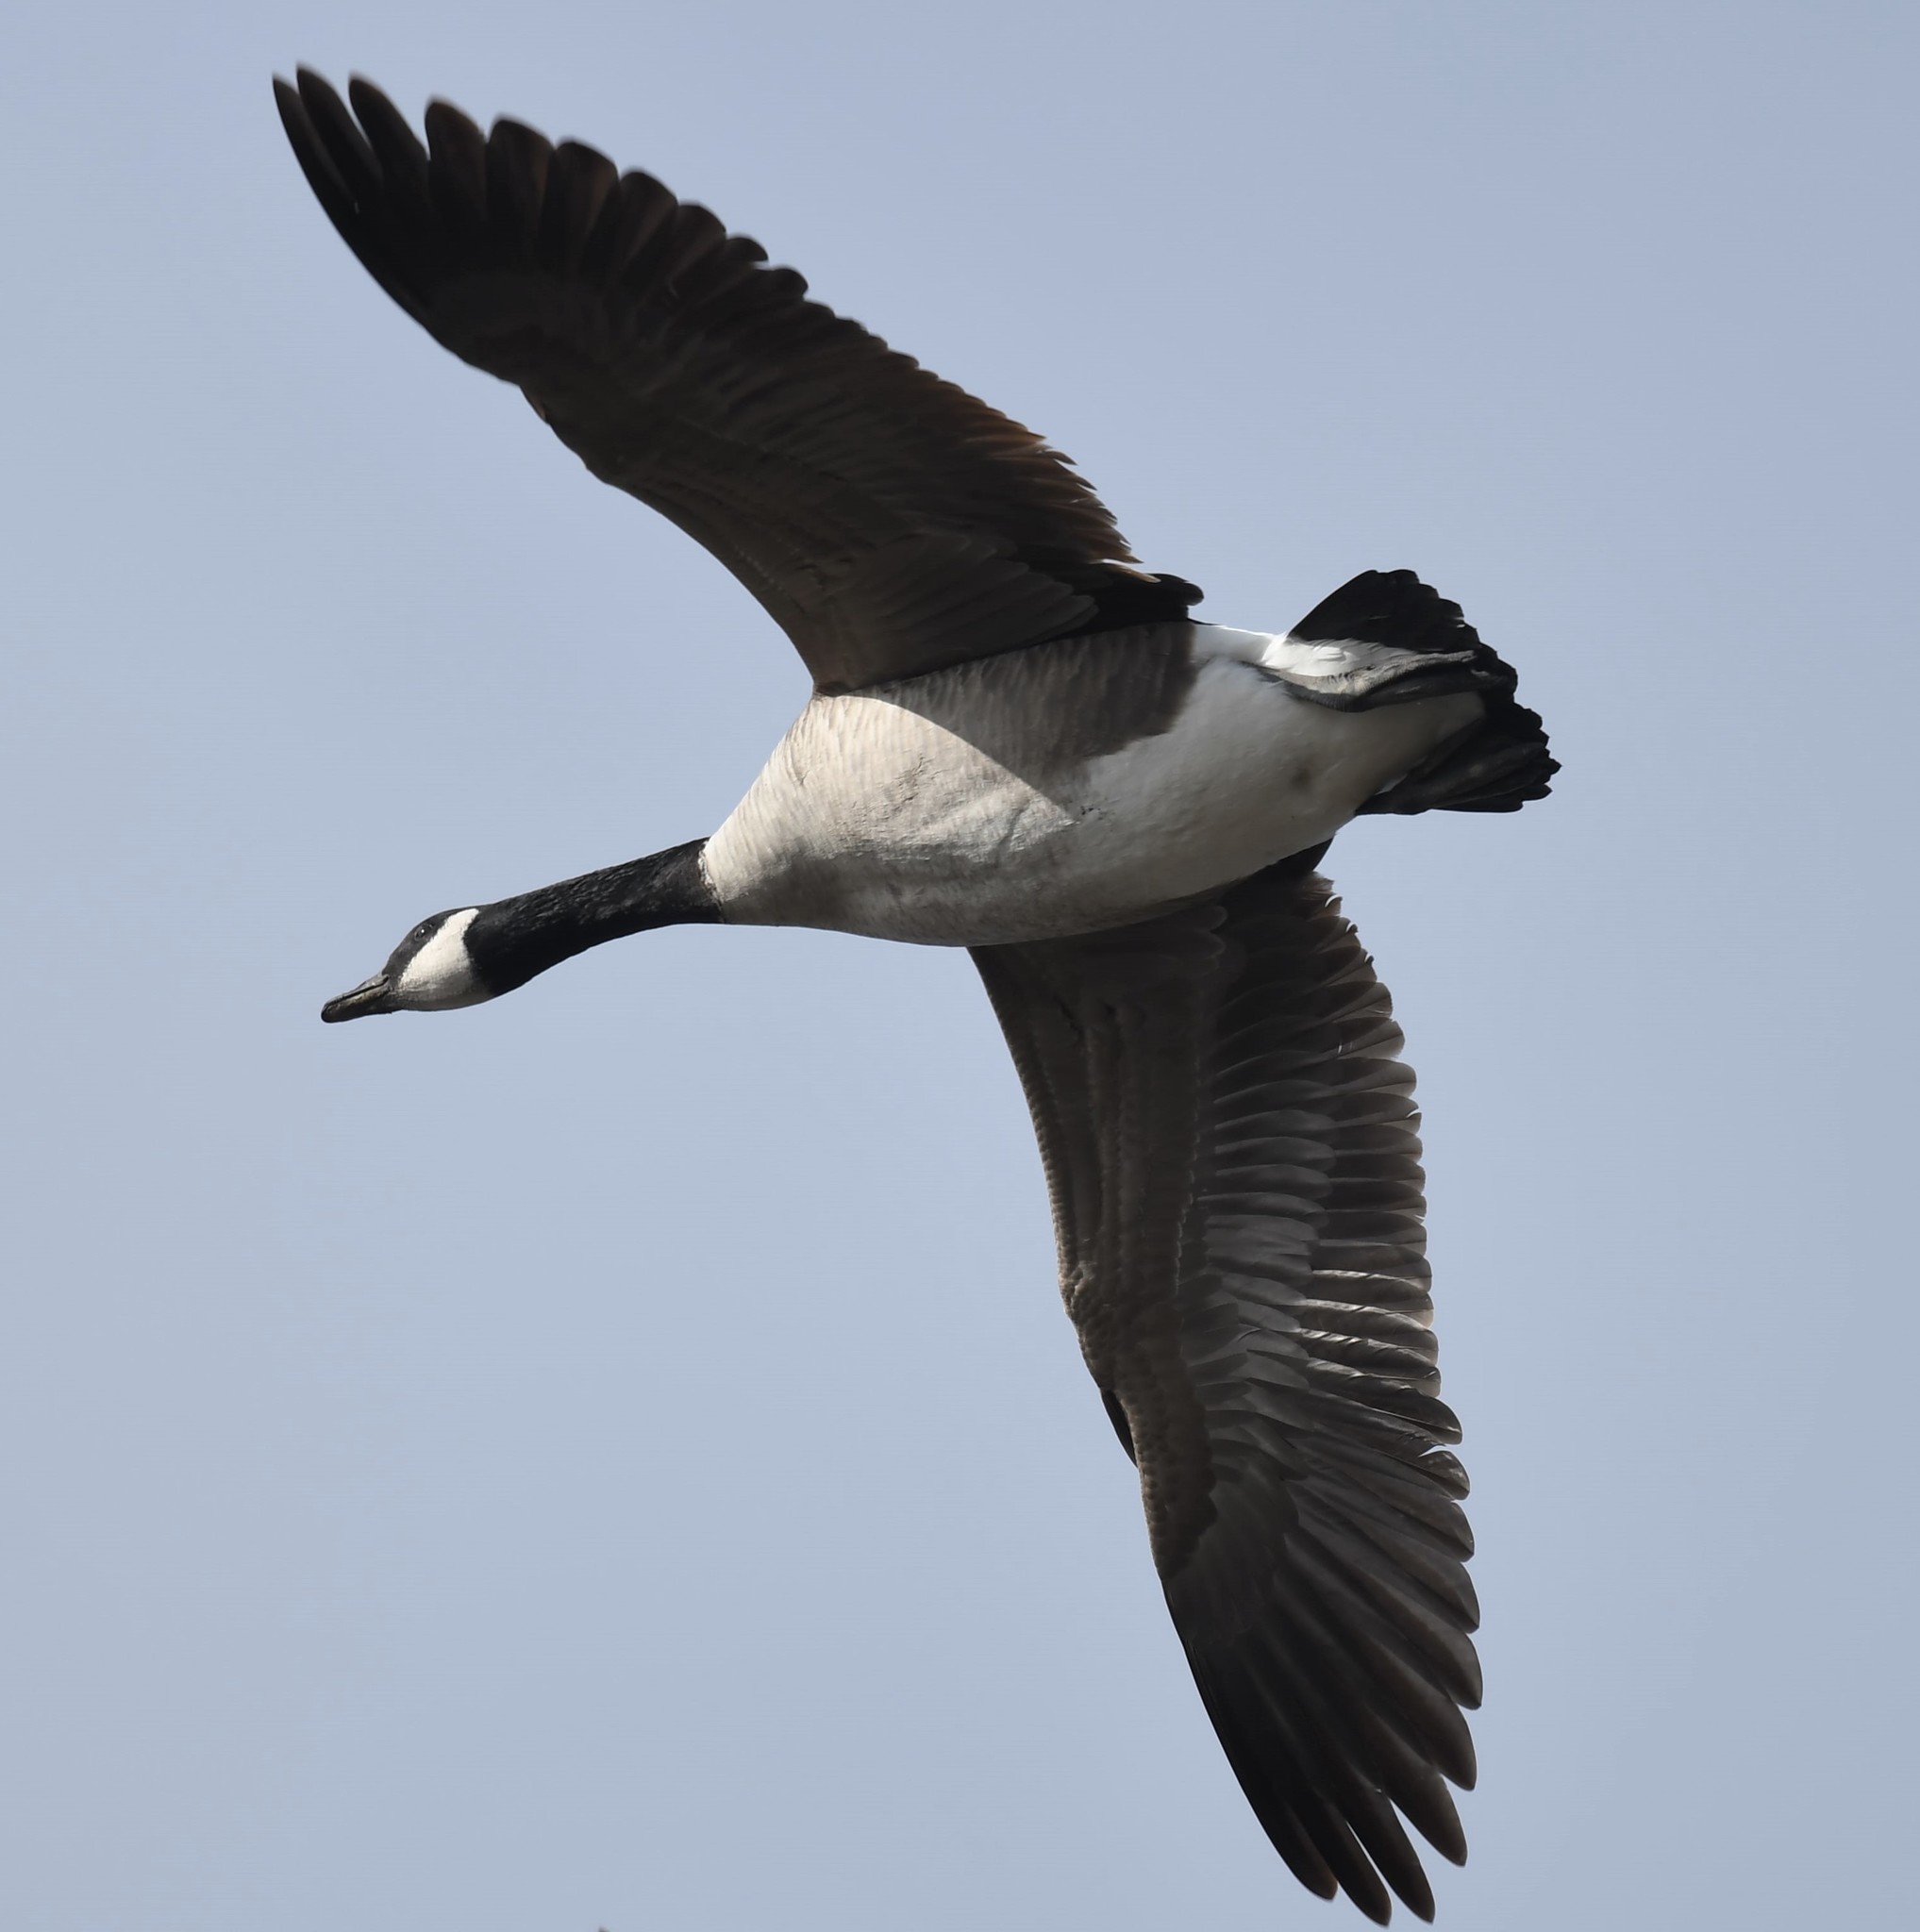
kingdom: Animalia
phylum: Chordata
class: Aves
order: Anseriformes
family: Anatidae
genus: Branta
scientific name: Branta canadensis
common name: Canada goose
